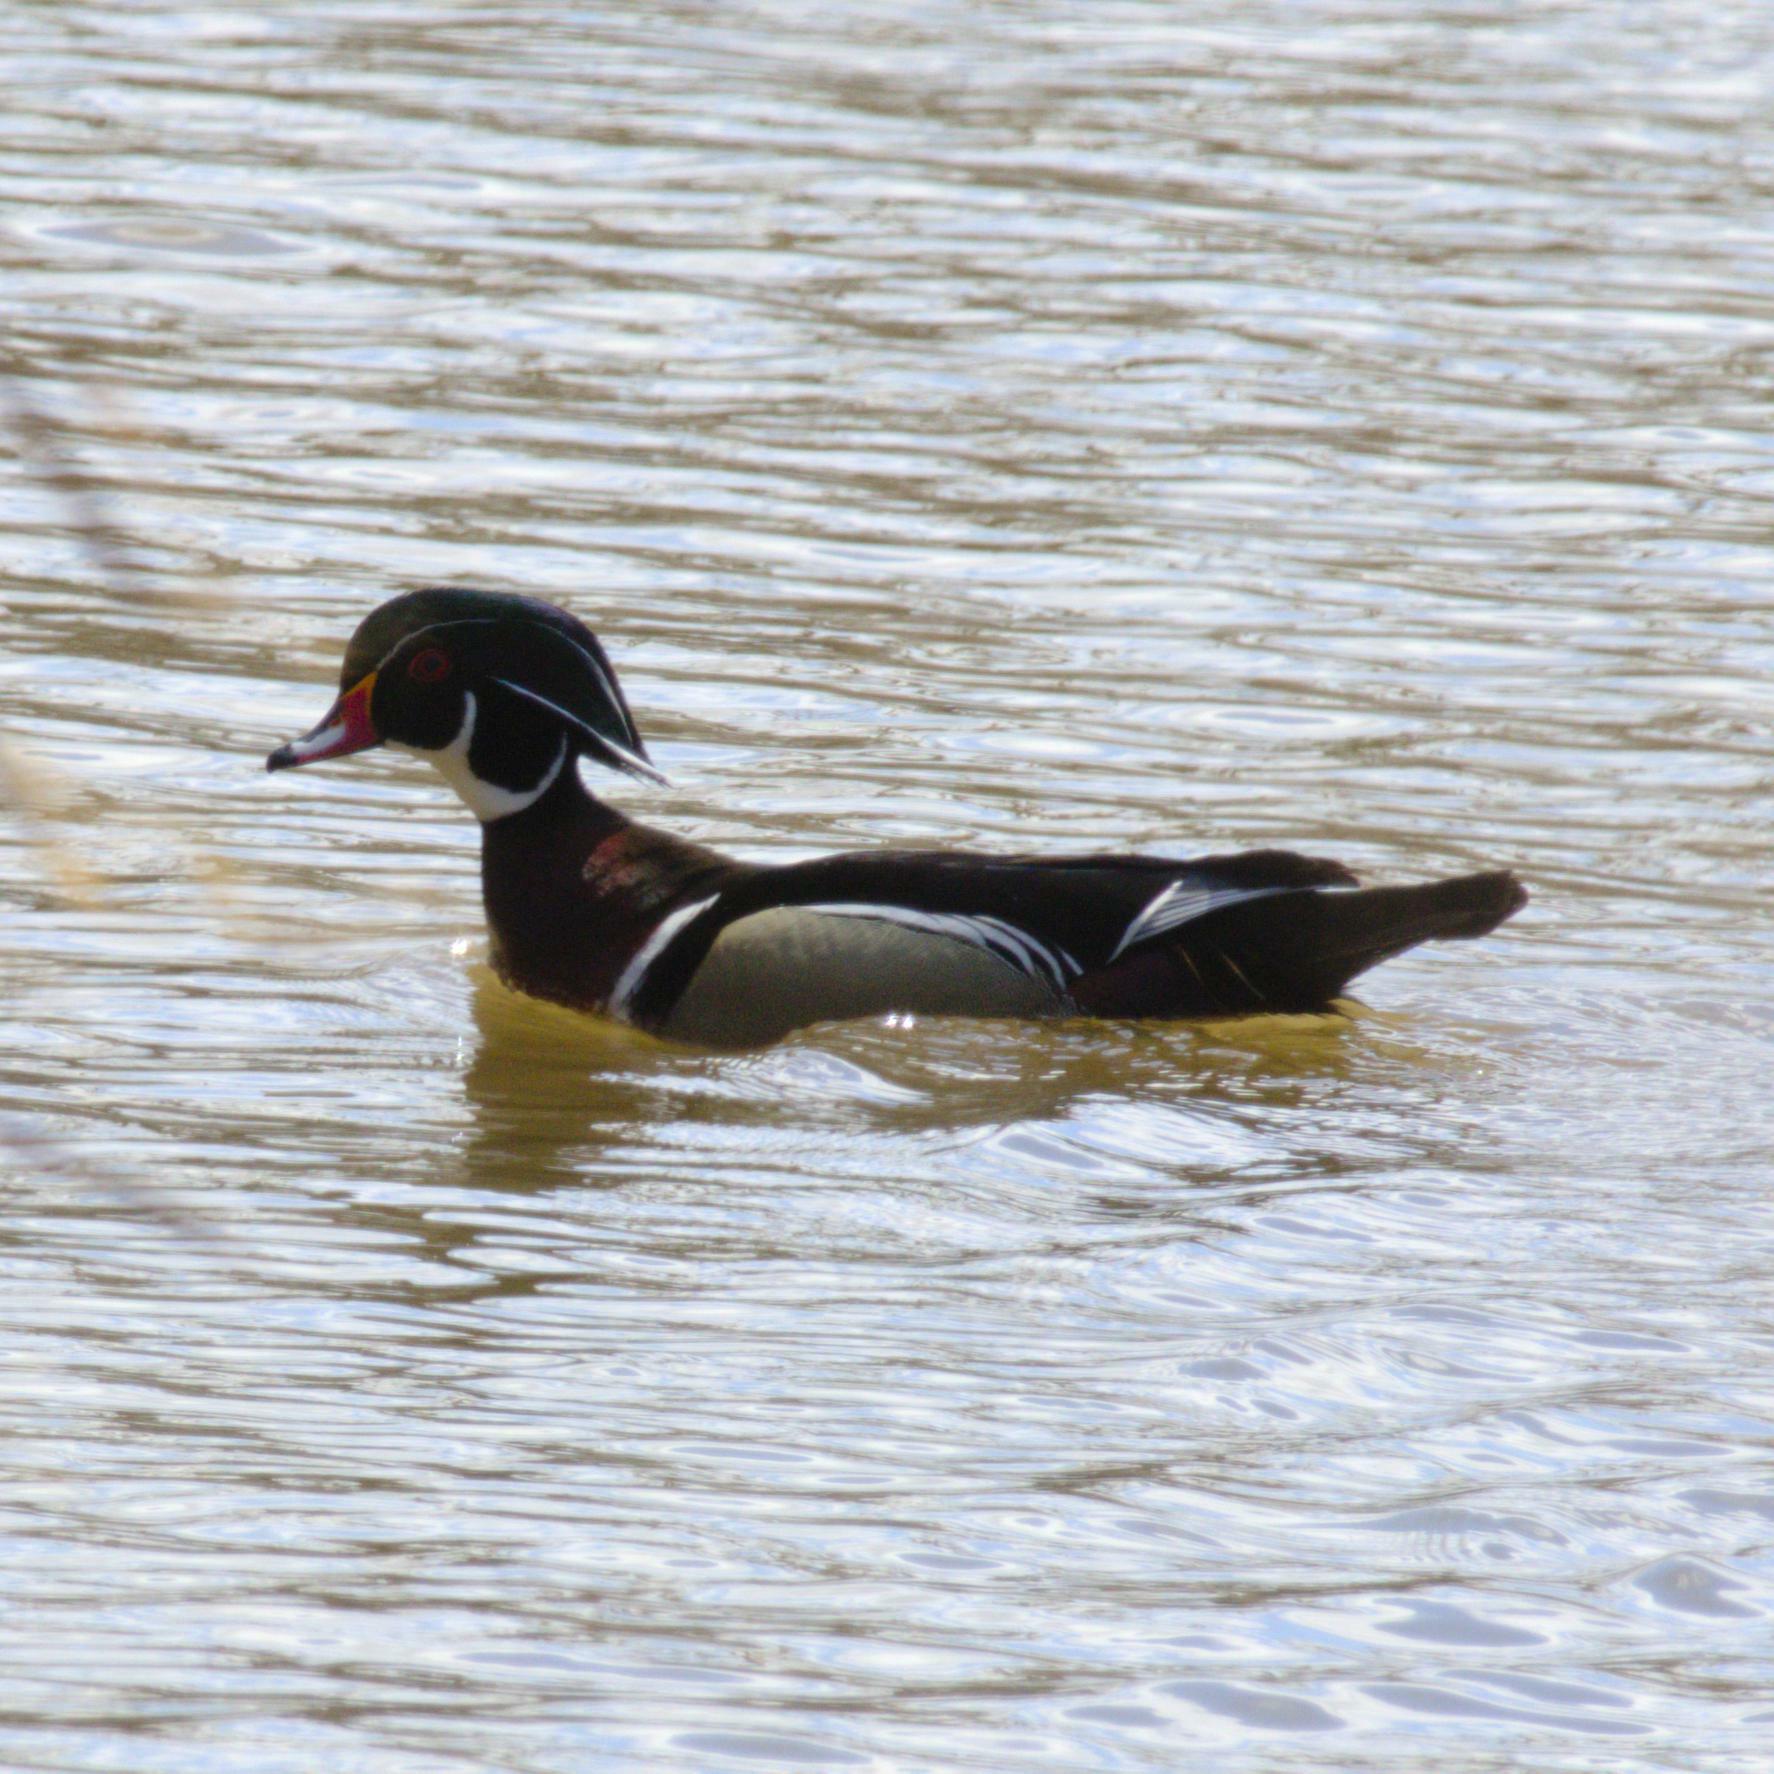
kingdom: Animalia
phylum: Chordata
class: Aves
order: Anseriformes
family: Anatidae
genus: Aix
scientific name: Aix sponsa
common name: Wood duck
